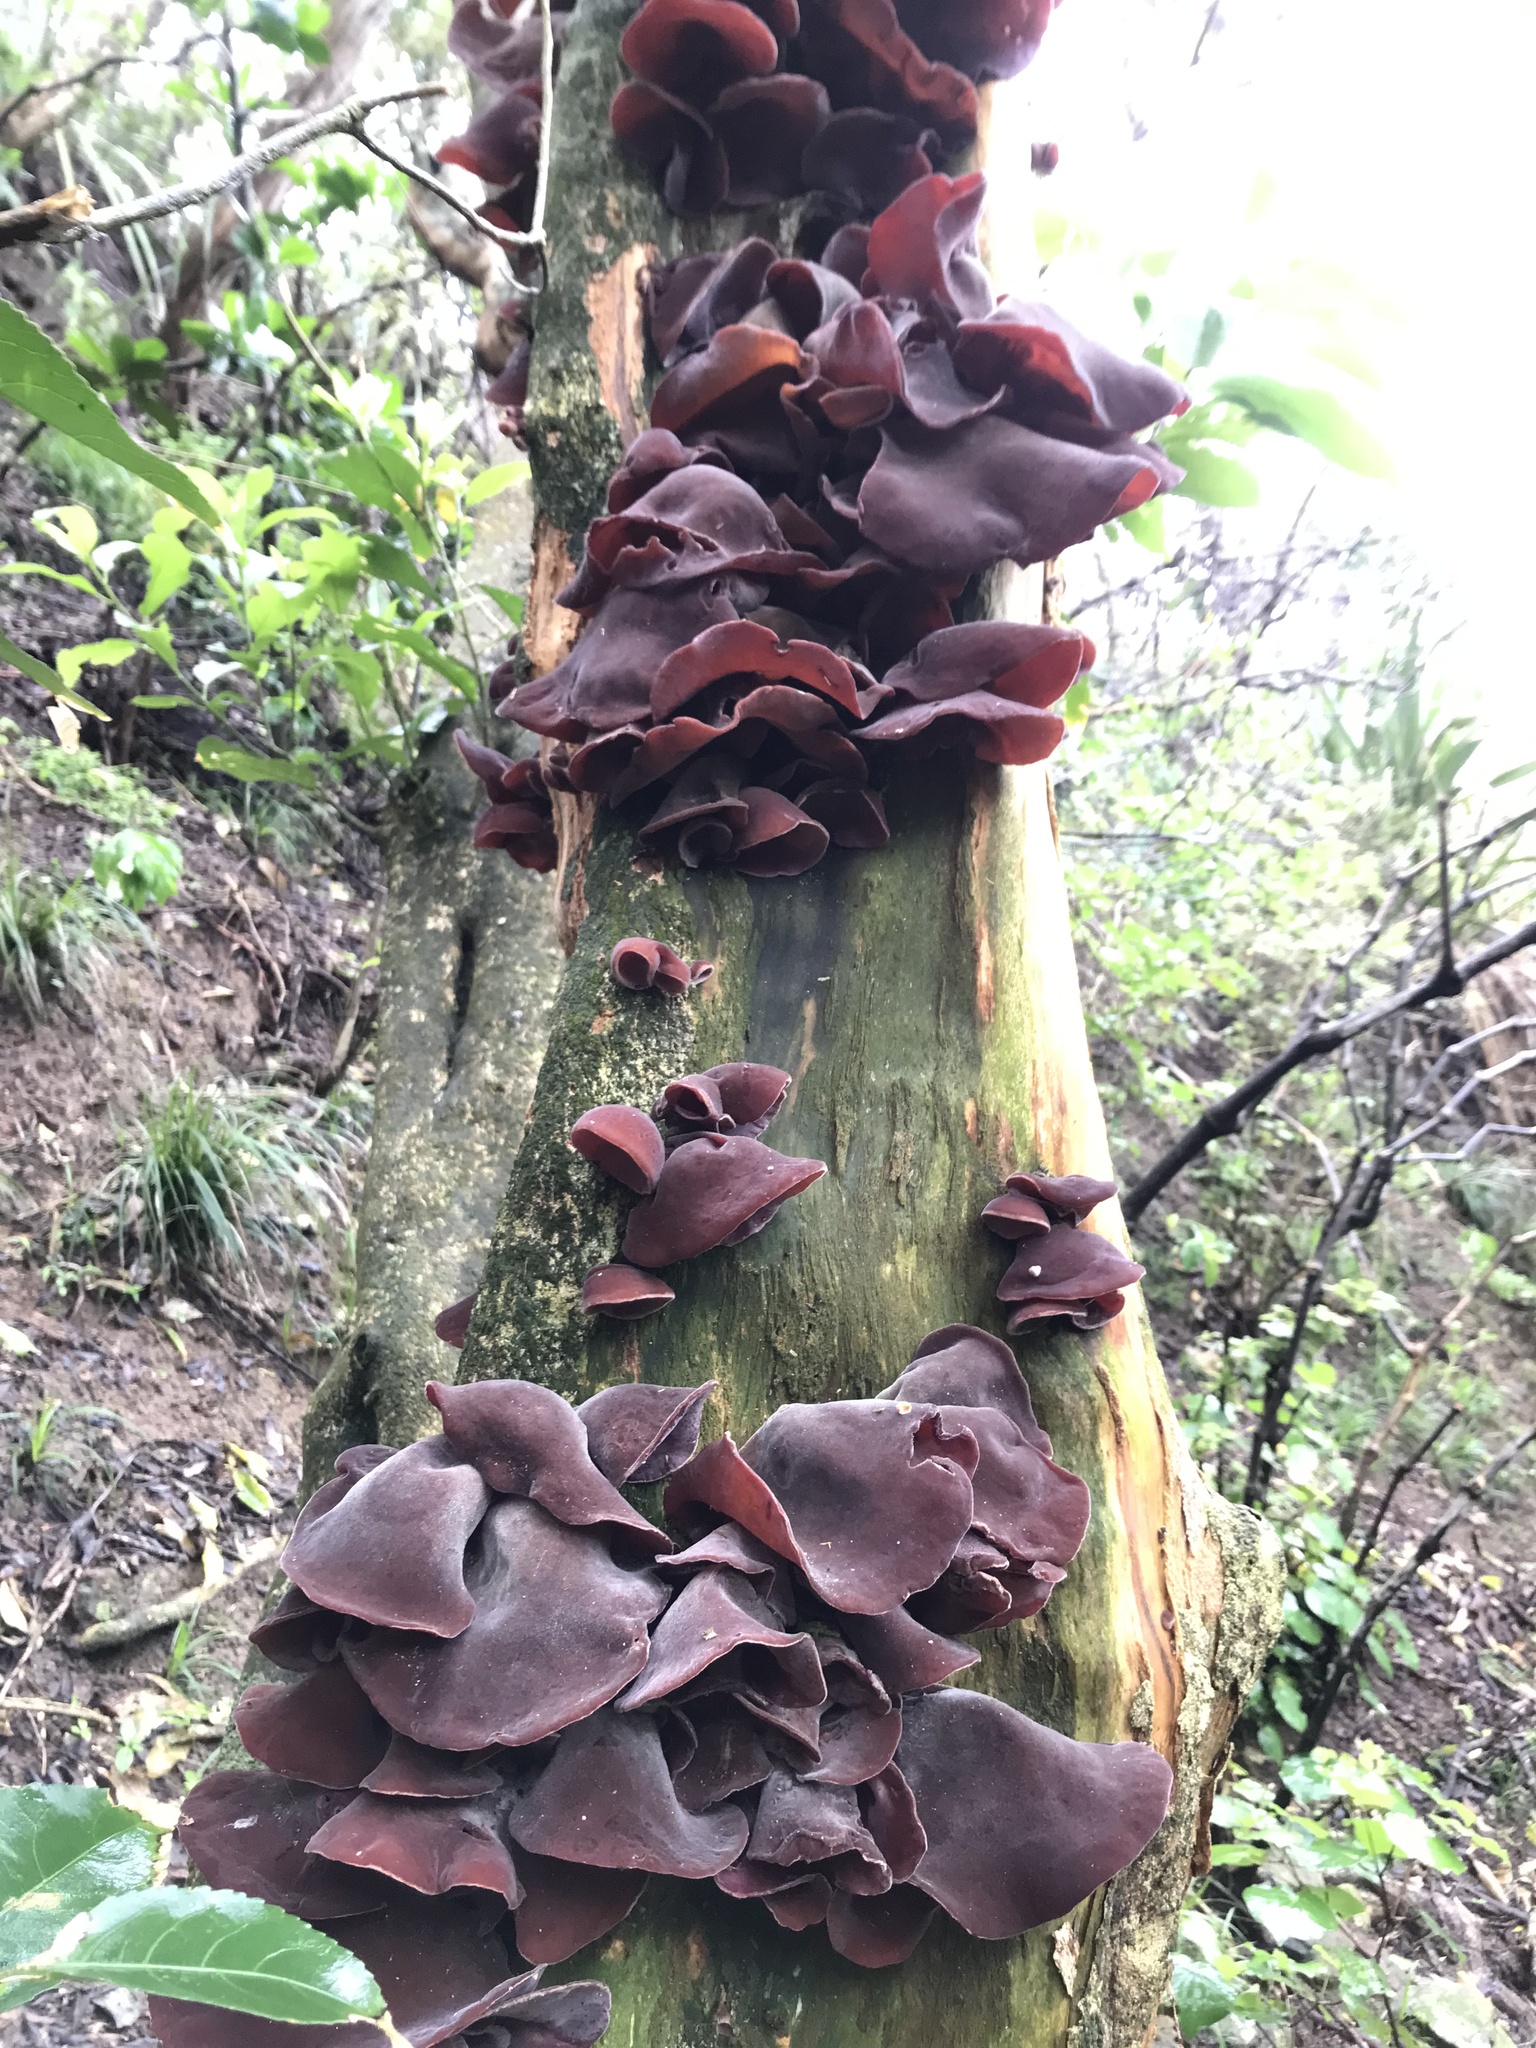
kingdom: Fungi
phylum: Basidiomycota
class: Agaricomycetes
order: Auriculariales
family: Auriculariaceae
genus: Auricularia
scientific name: Auricularia cornea
